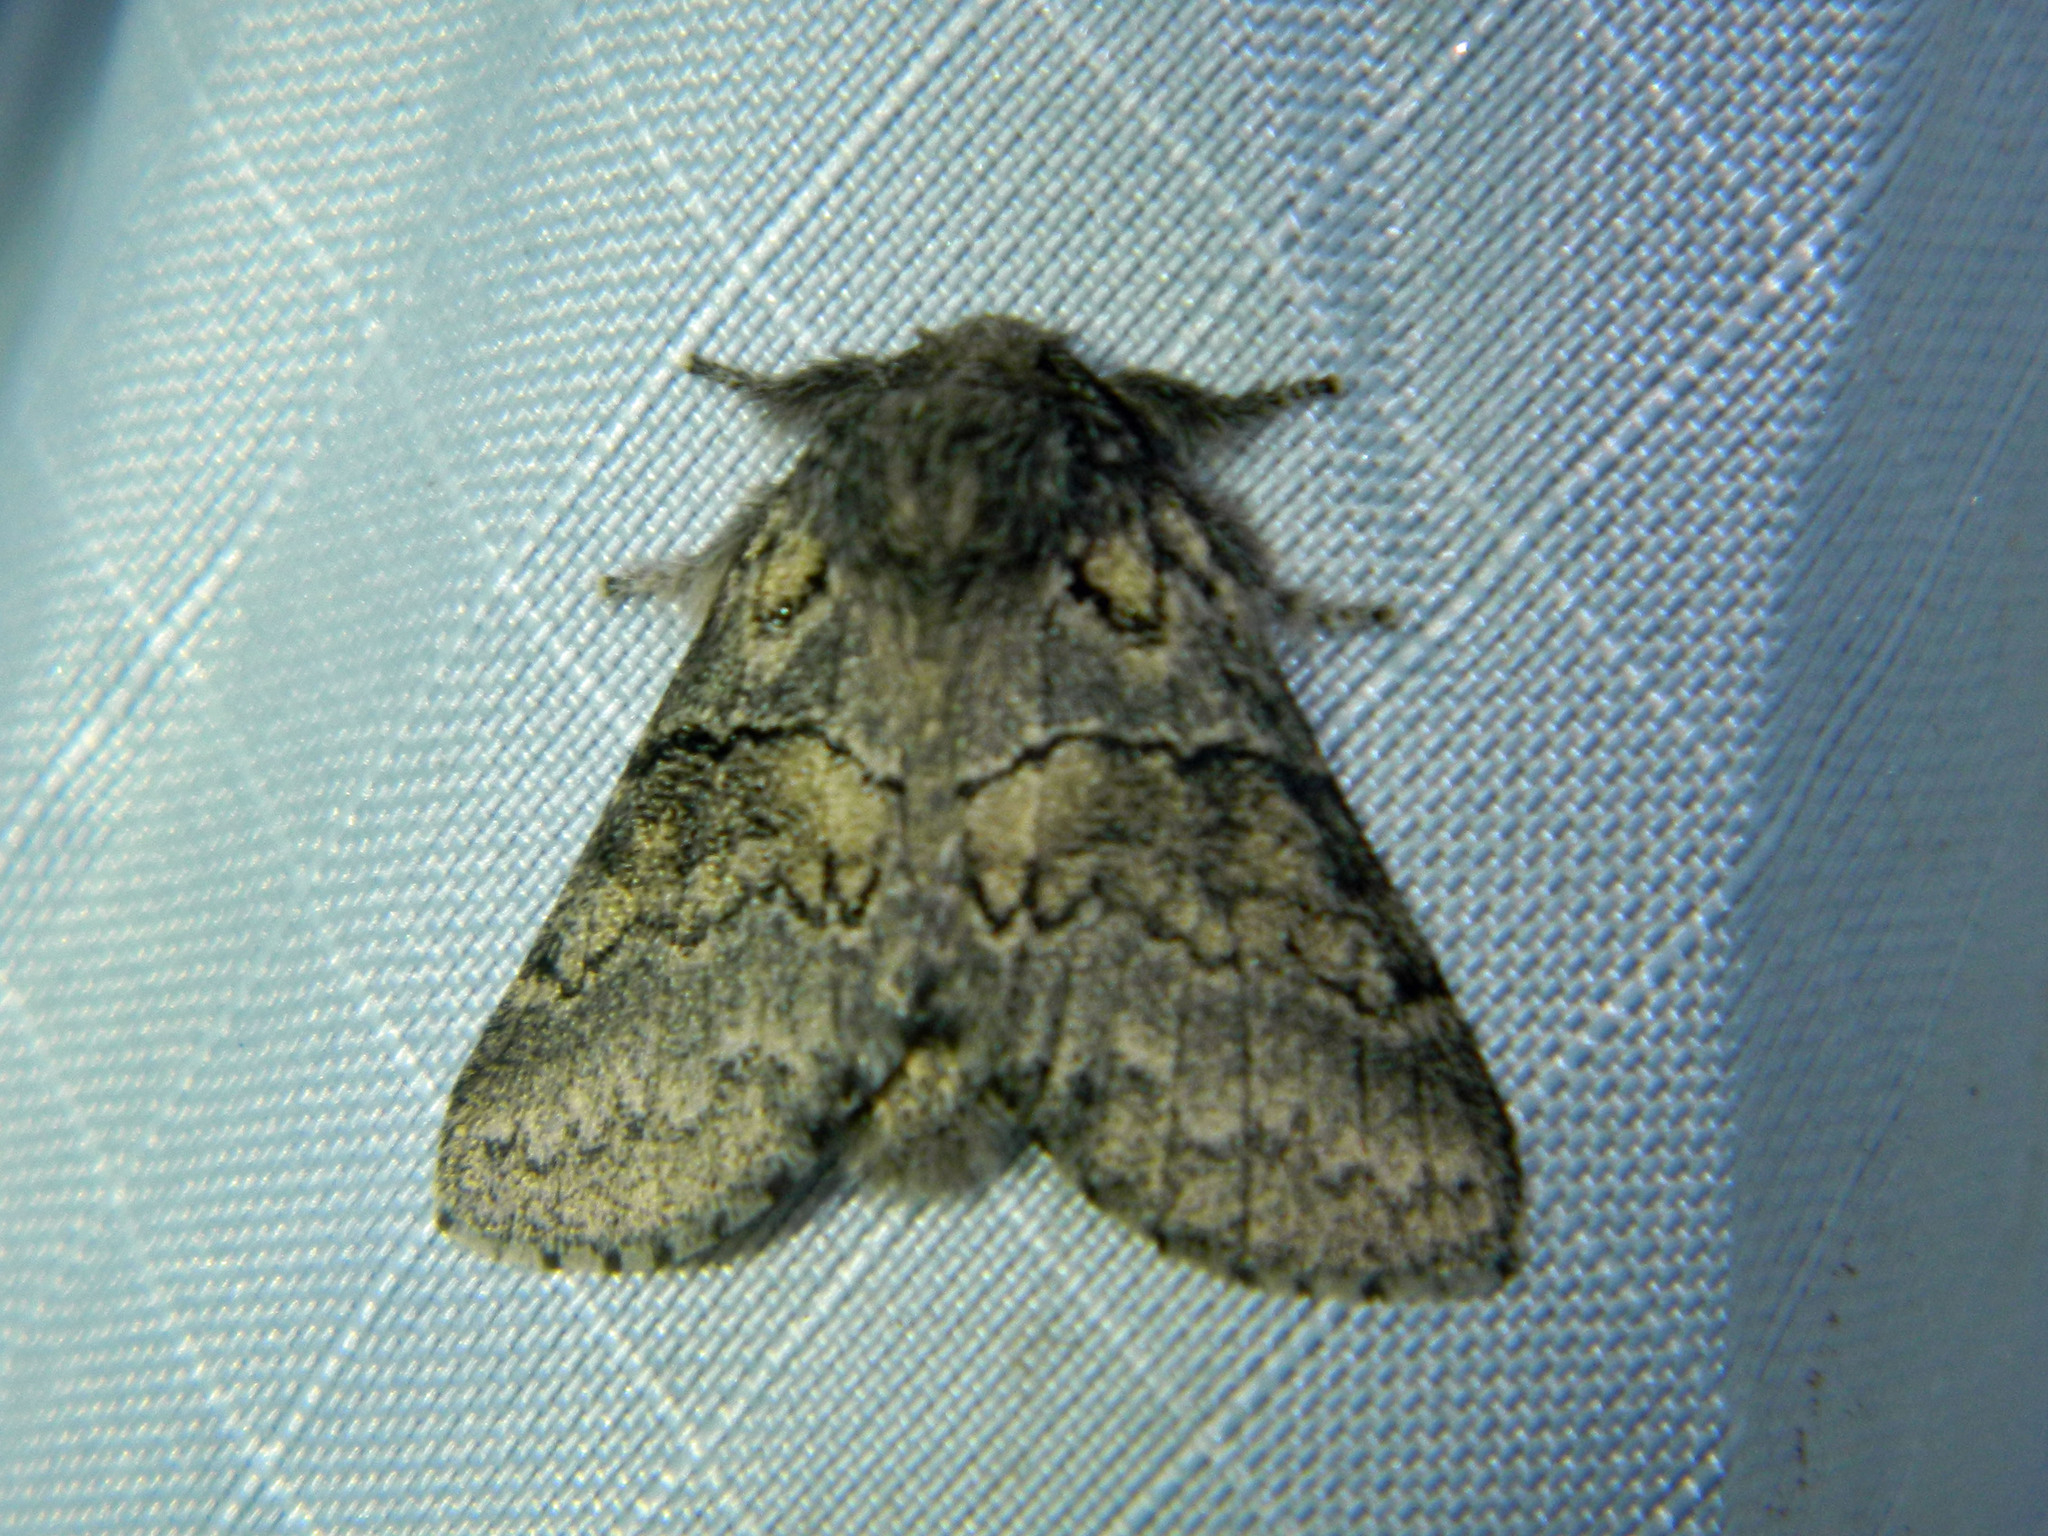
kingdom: Animalia
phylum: Arthropoda
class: Insecta
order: Lepidoptera
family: Notodontidae
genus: Gluphisia
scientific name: Gluphisia septentrionis
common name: Common gluphisia
